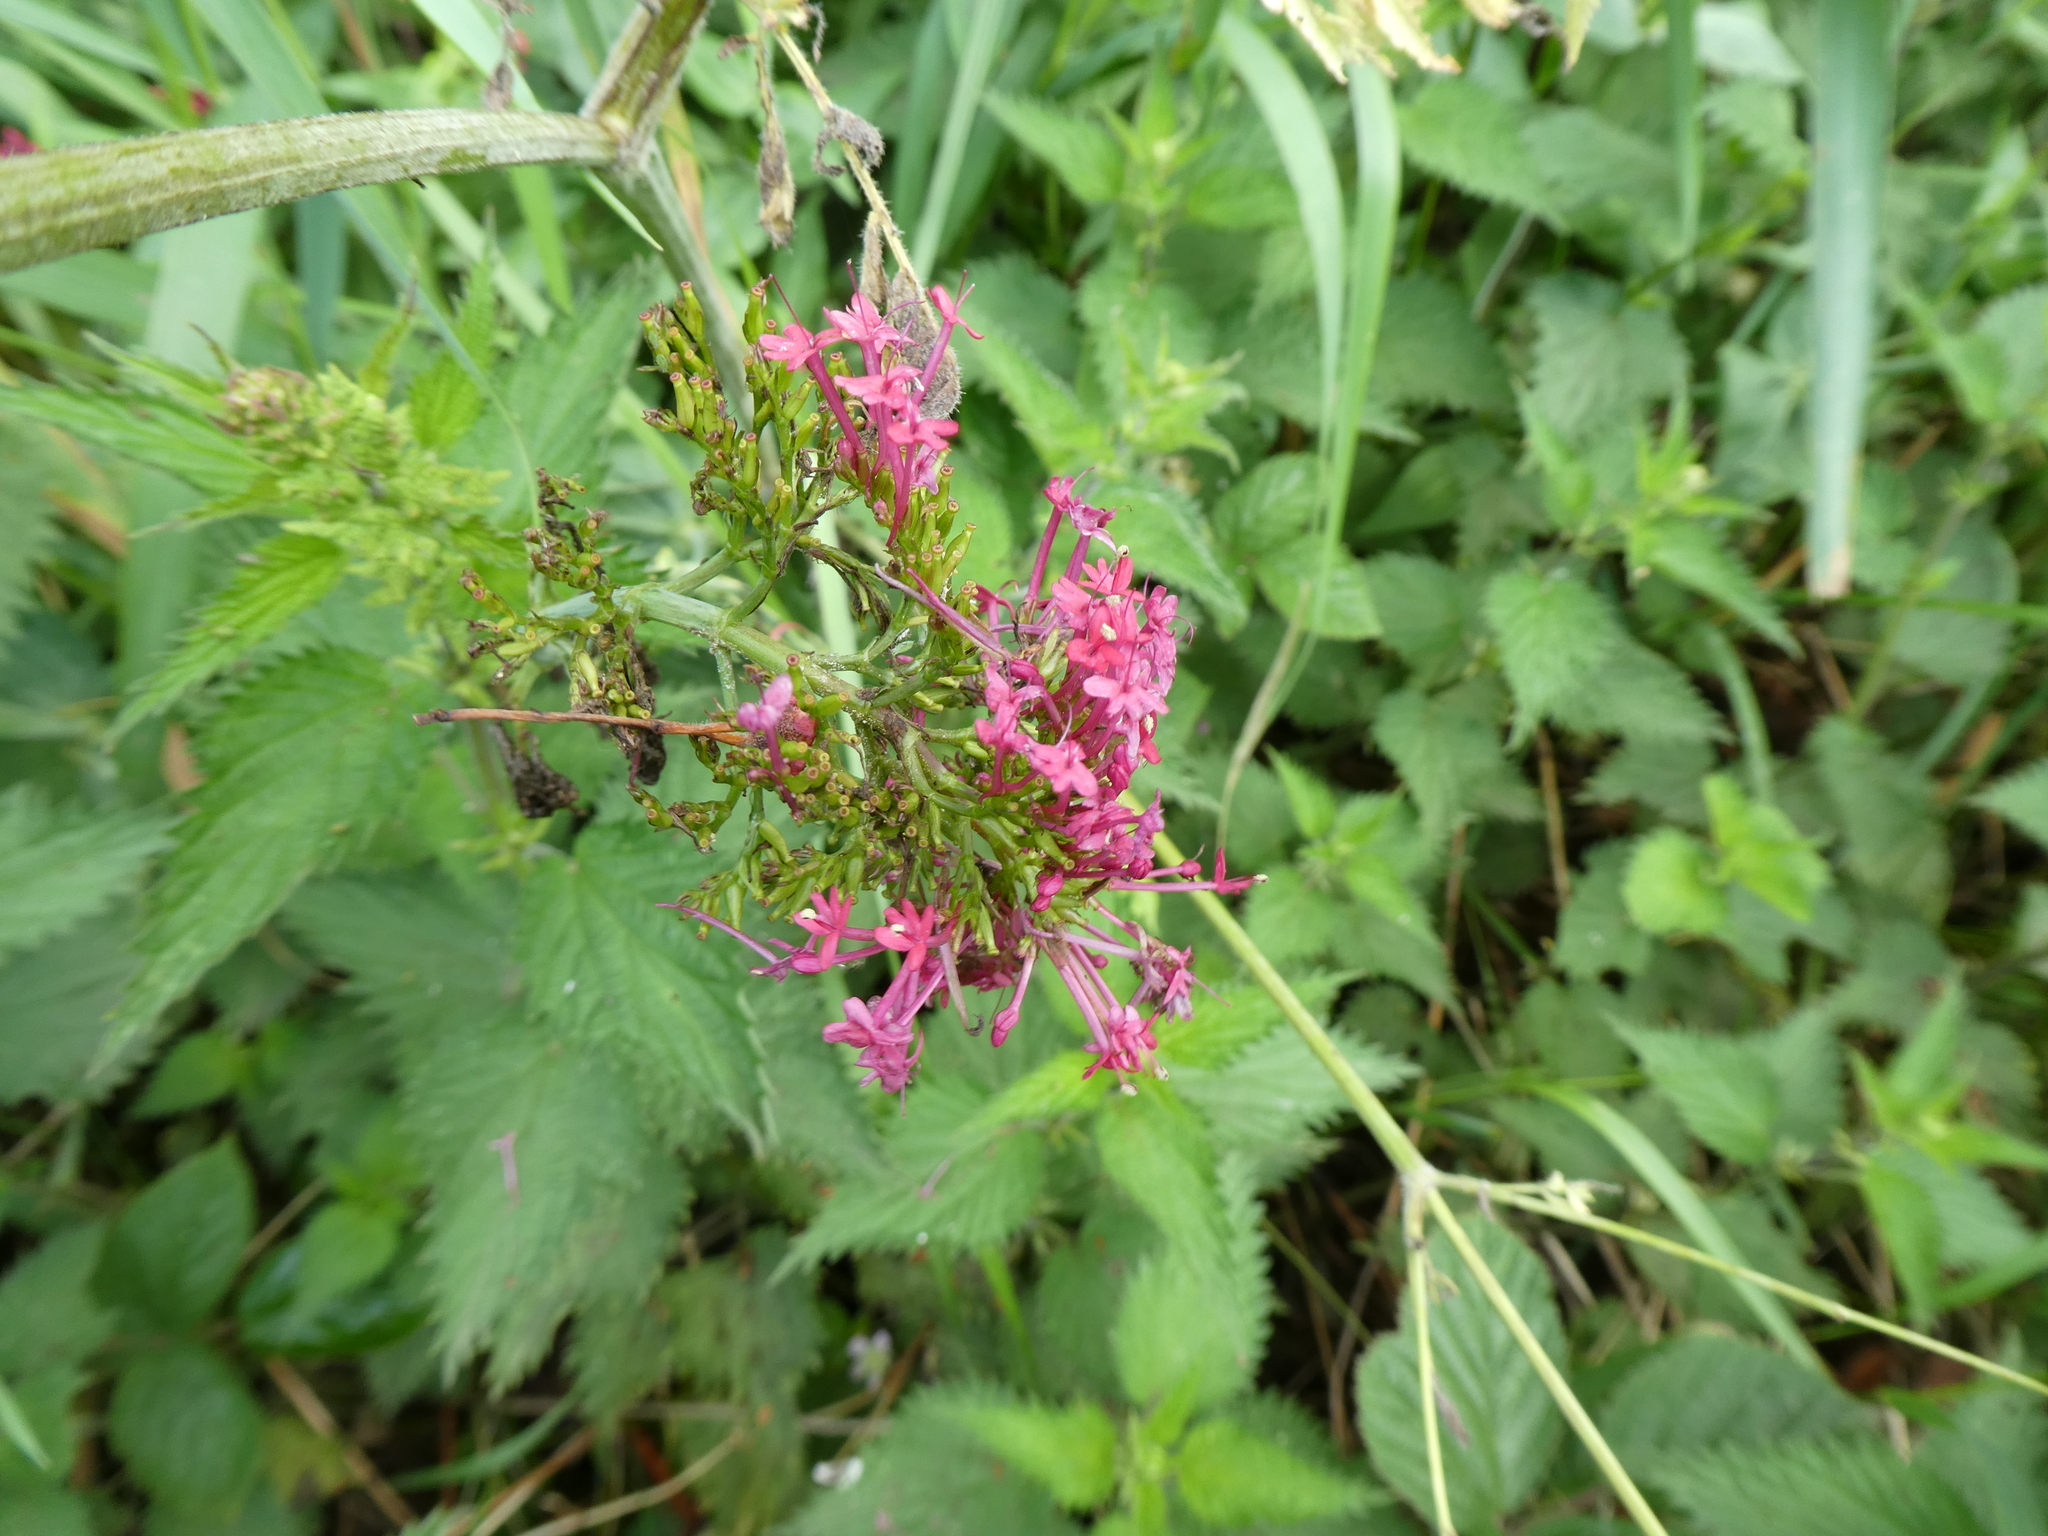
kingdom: Plantae
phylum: Tracheophyta
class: Magnoliopsida
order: Dipsacales
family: Caprifoliaceae
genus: Centranthus
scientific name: Centranthus ruber
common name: Red valerian
